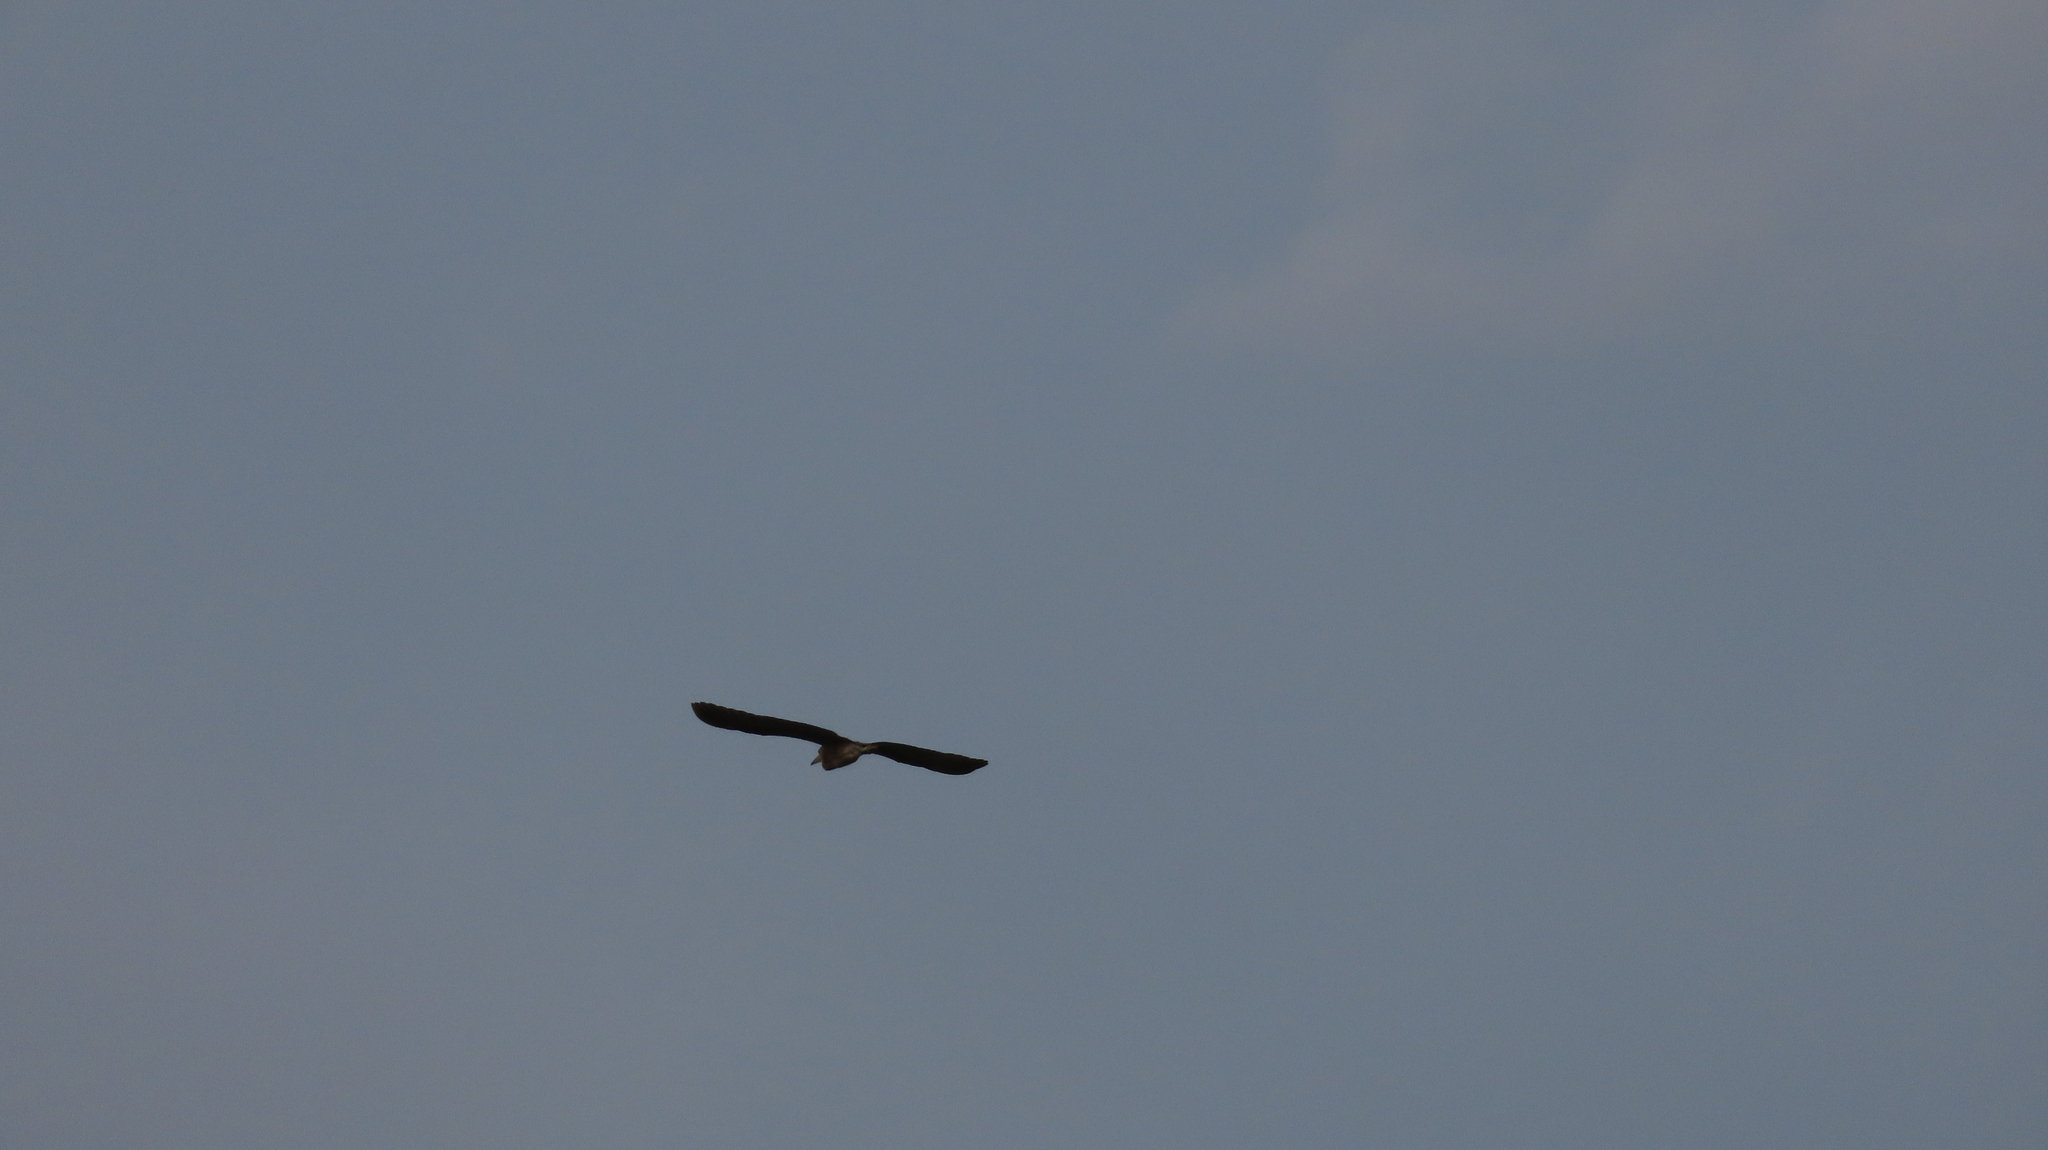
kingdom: Animalia
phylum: Chordata
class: Aves
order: Pelecaniformes
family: Ardeidae
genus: Nycticorax
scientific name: Nycticorax nycticorax
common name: Black-crowned night heron
